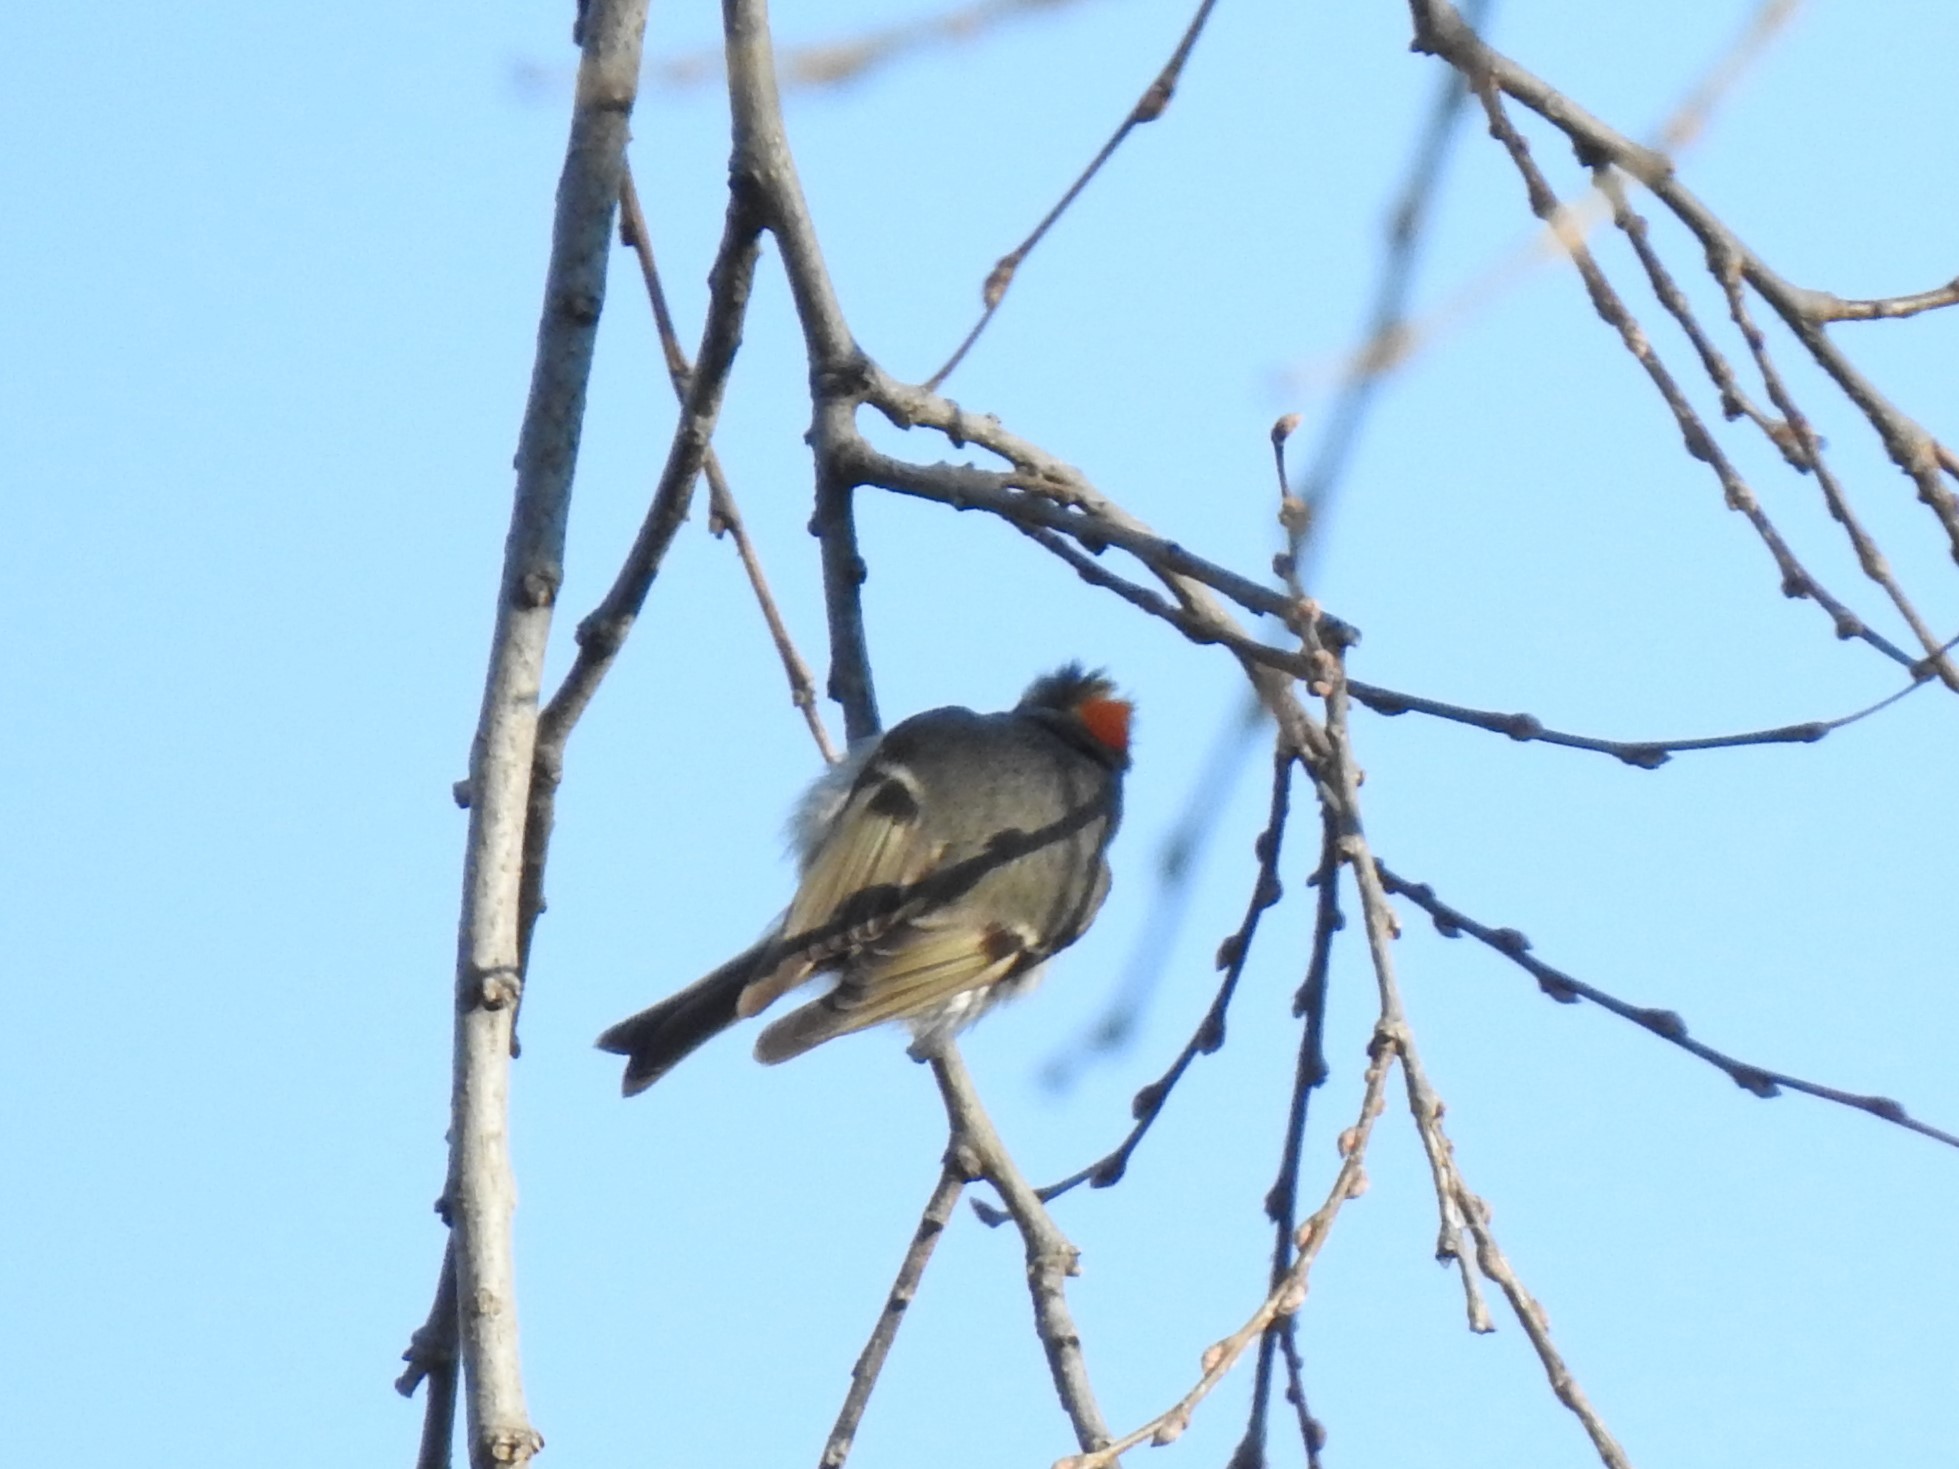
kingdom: Animalia
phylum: Chordata
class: Aves
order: Passeriformes
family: Regulidae
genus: Regulus
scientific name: Regulus satrapa
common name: Golden-crowned kinglet
